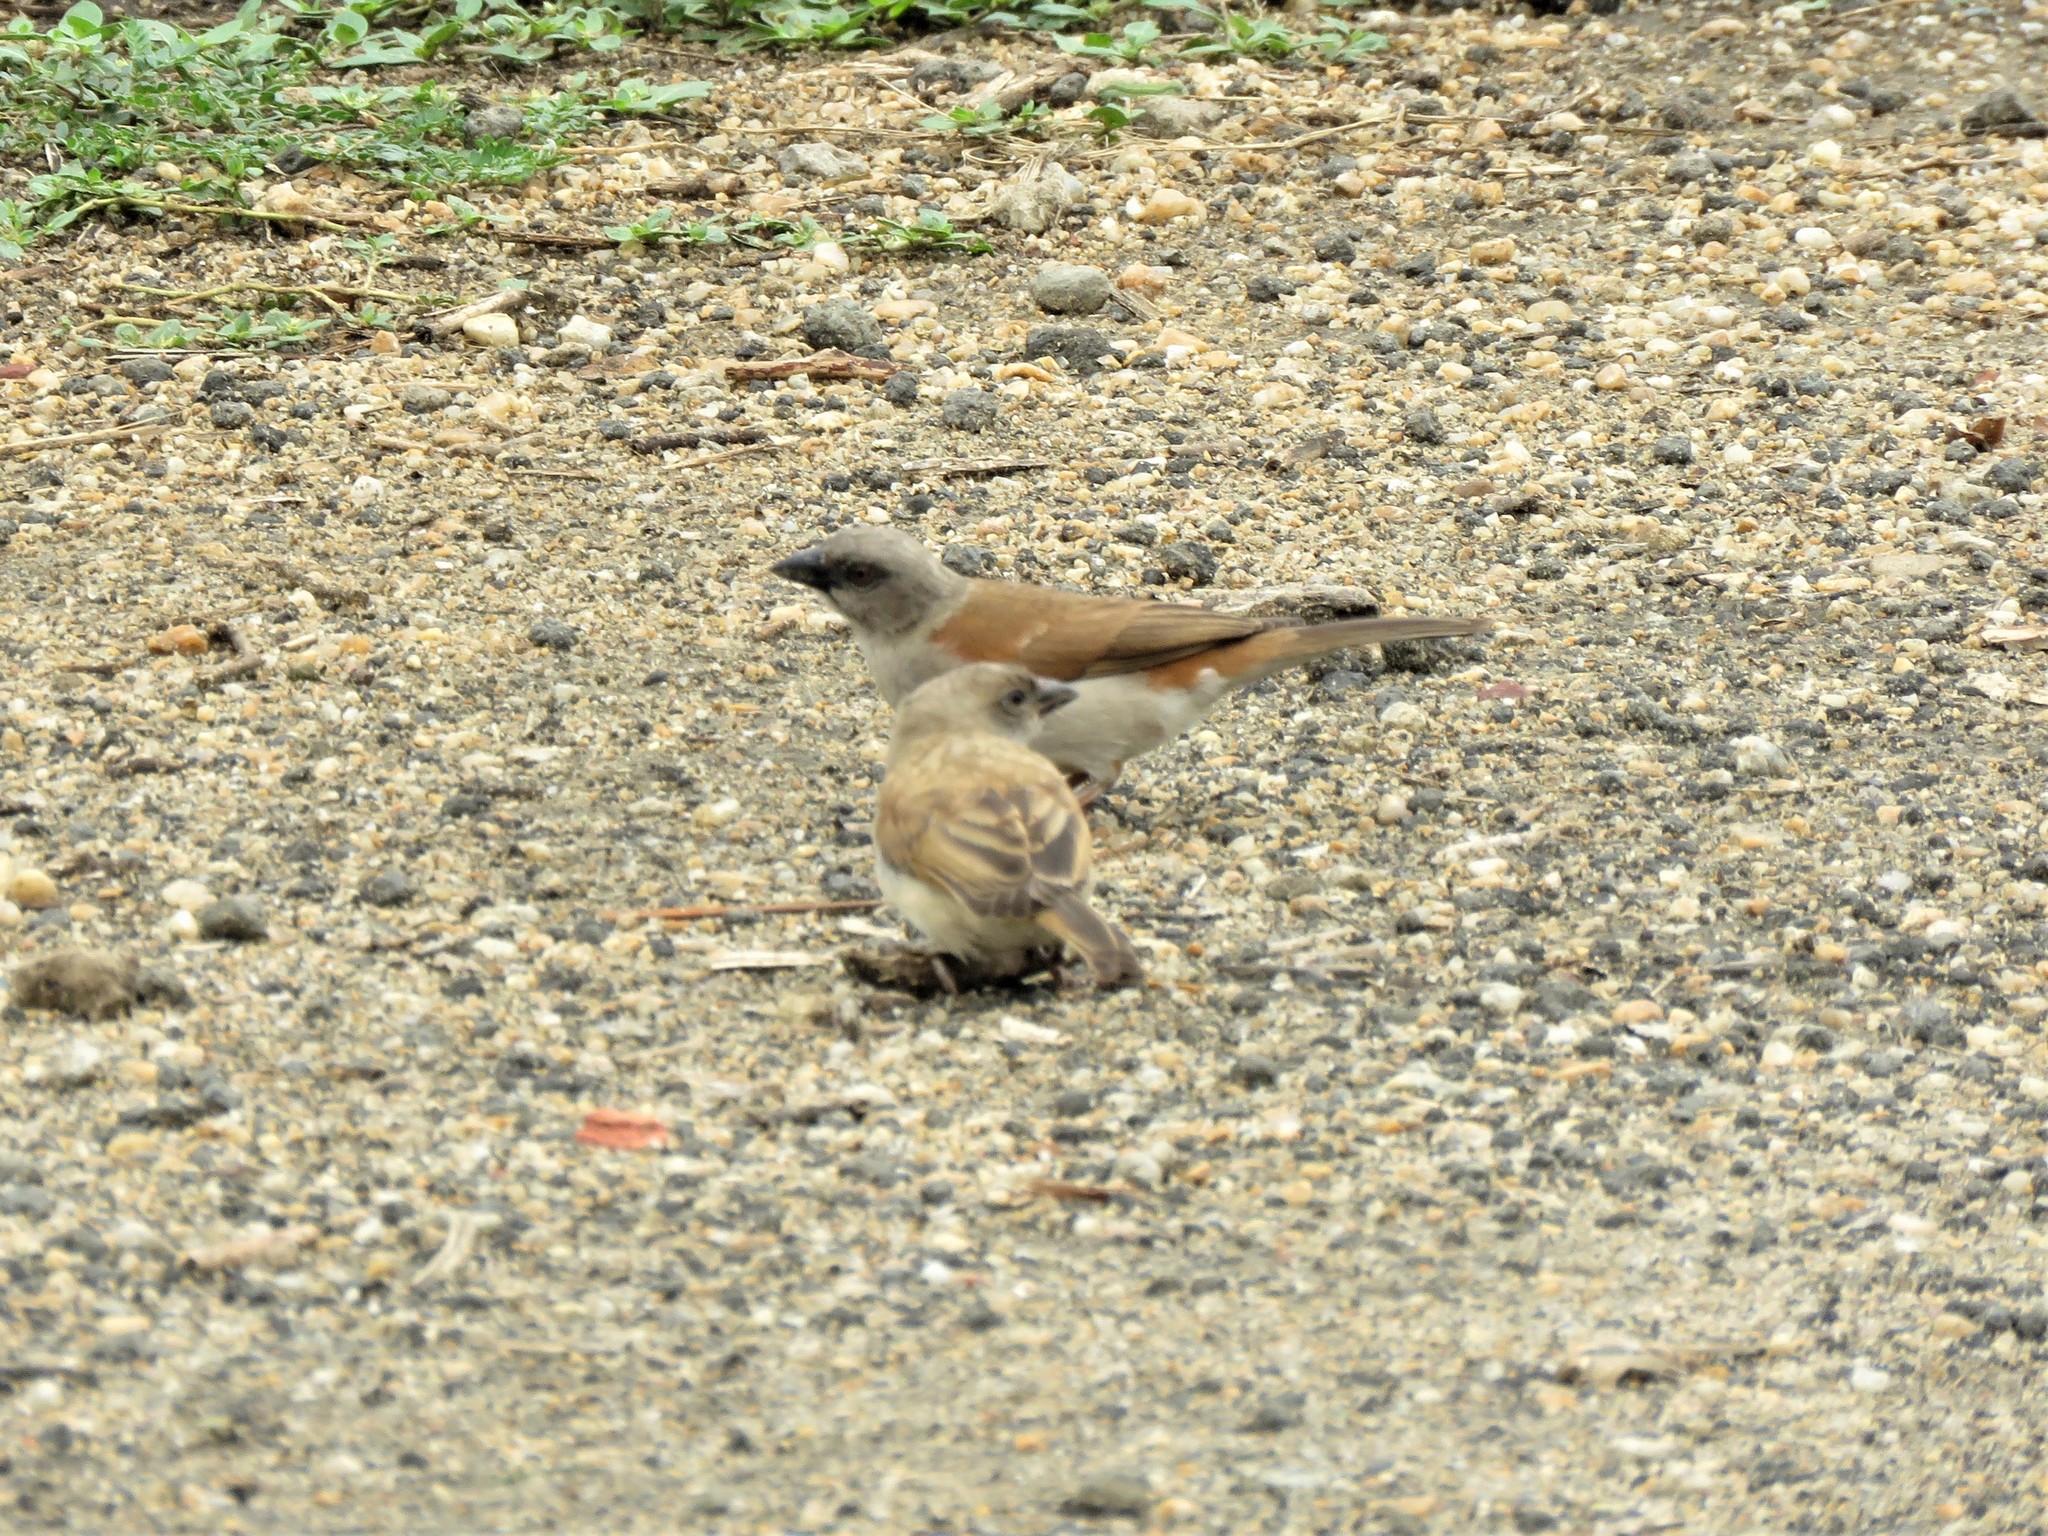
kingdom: Animalia
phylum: Chordata
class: Aves
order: Passeriformes
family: Passeridae
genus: Passer
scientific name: Passer griseus
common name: Northern grey-headed sparrow
